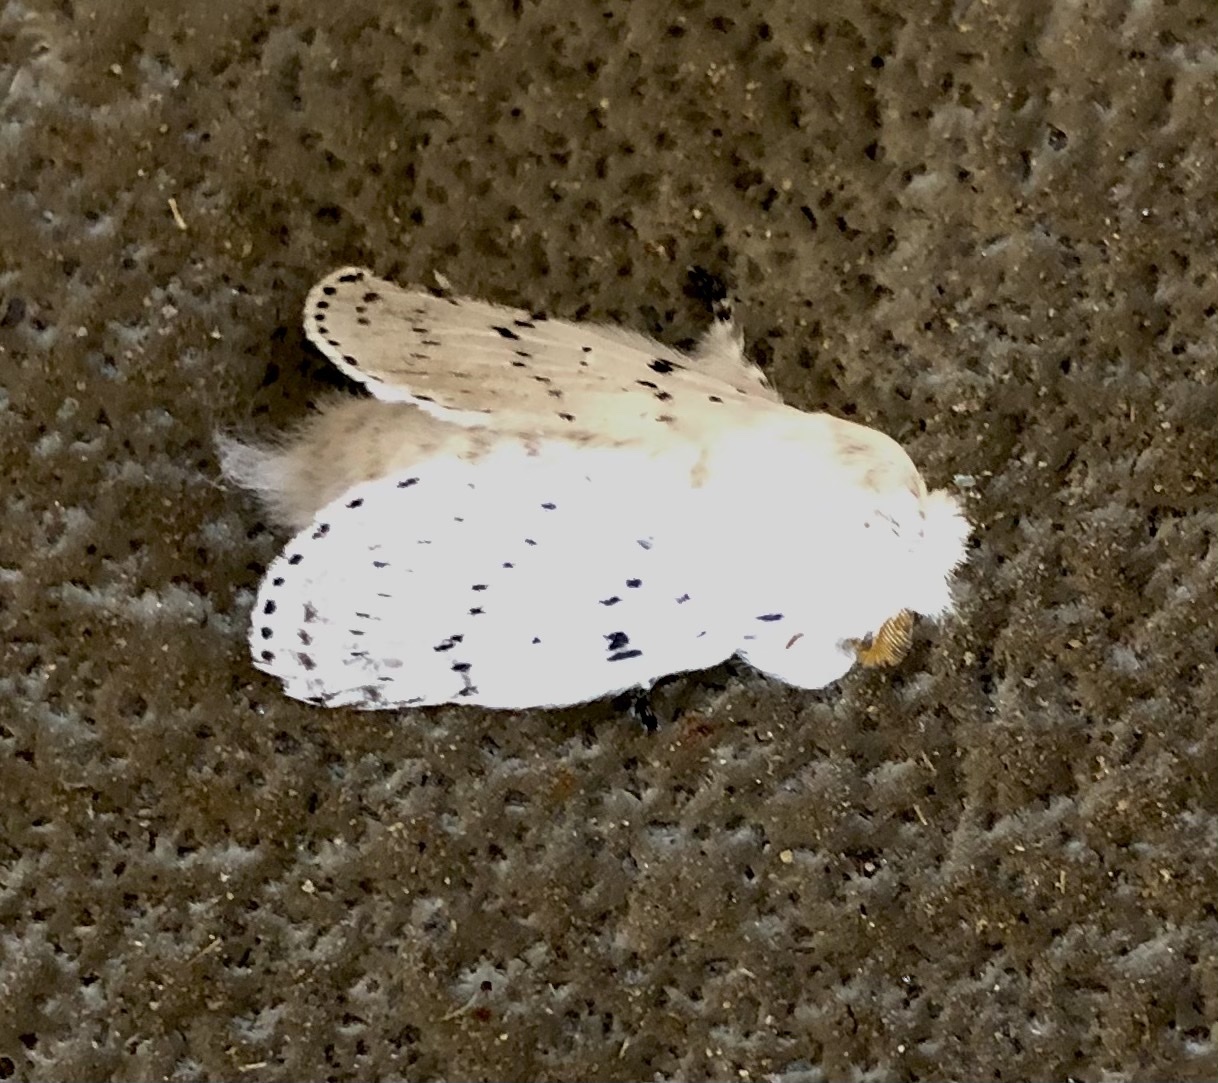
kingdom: Animalia
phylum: Arthropoda
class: Insecta
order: Lepidoptera
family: Lasiocampidae
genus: Artace
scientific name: Artace cribrarius
